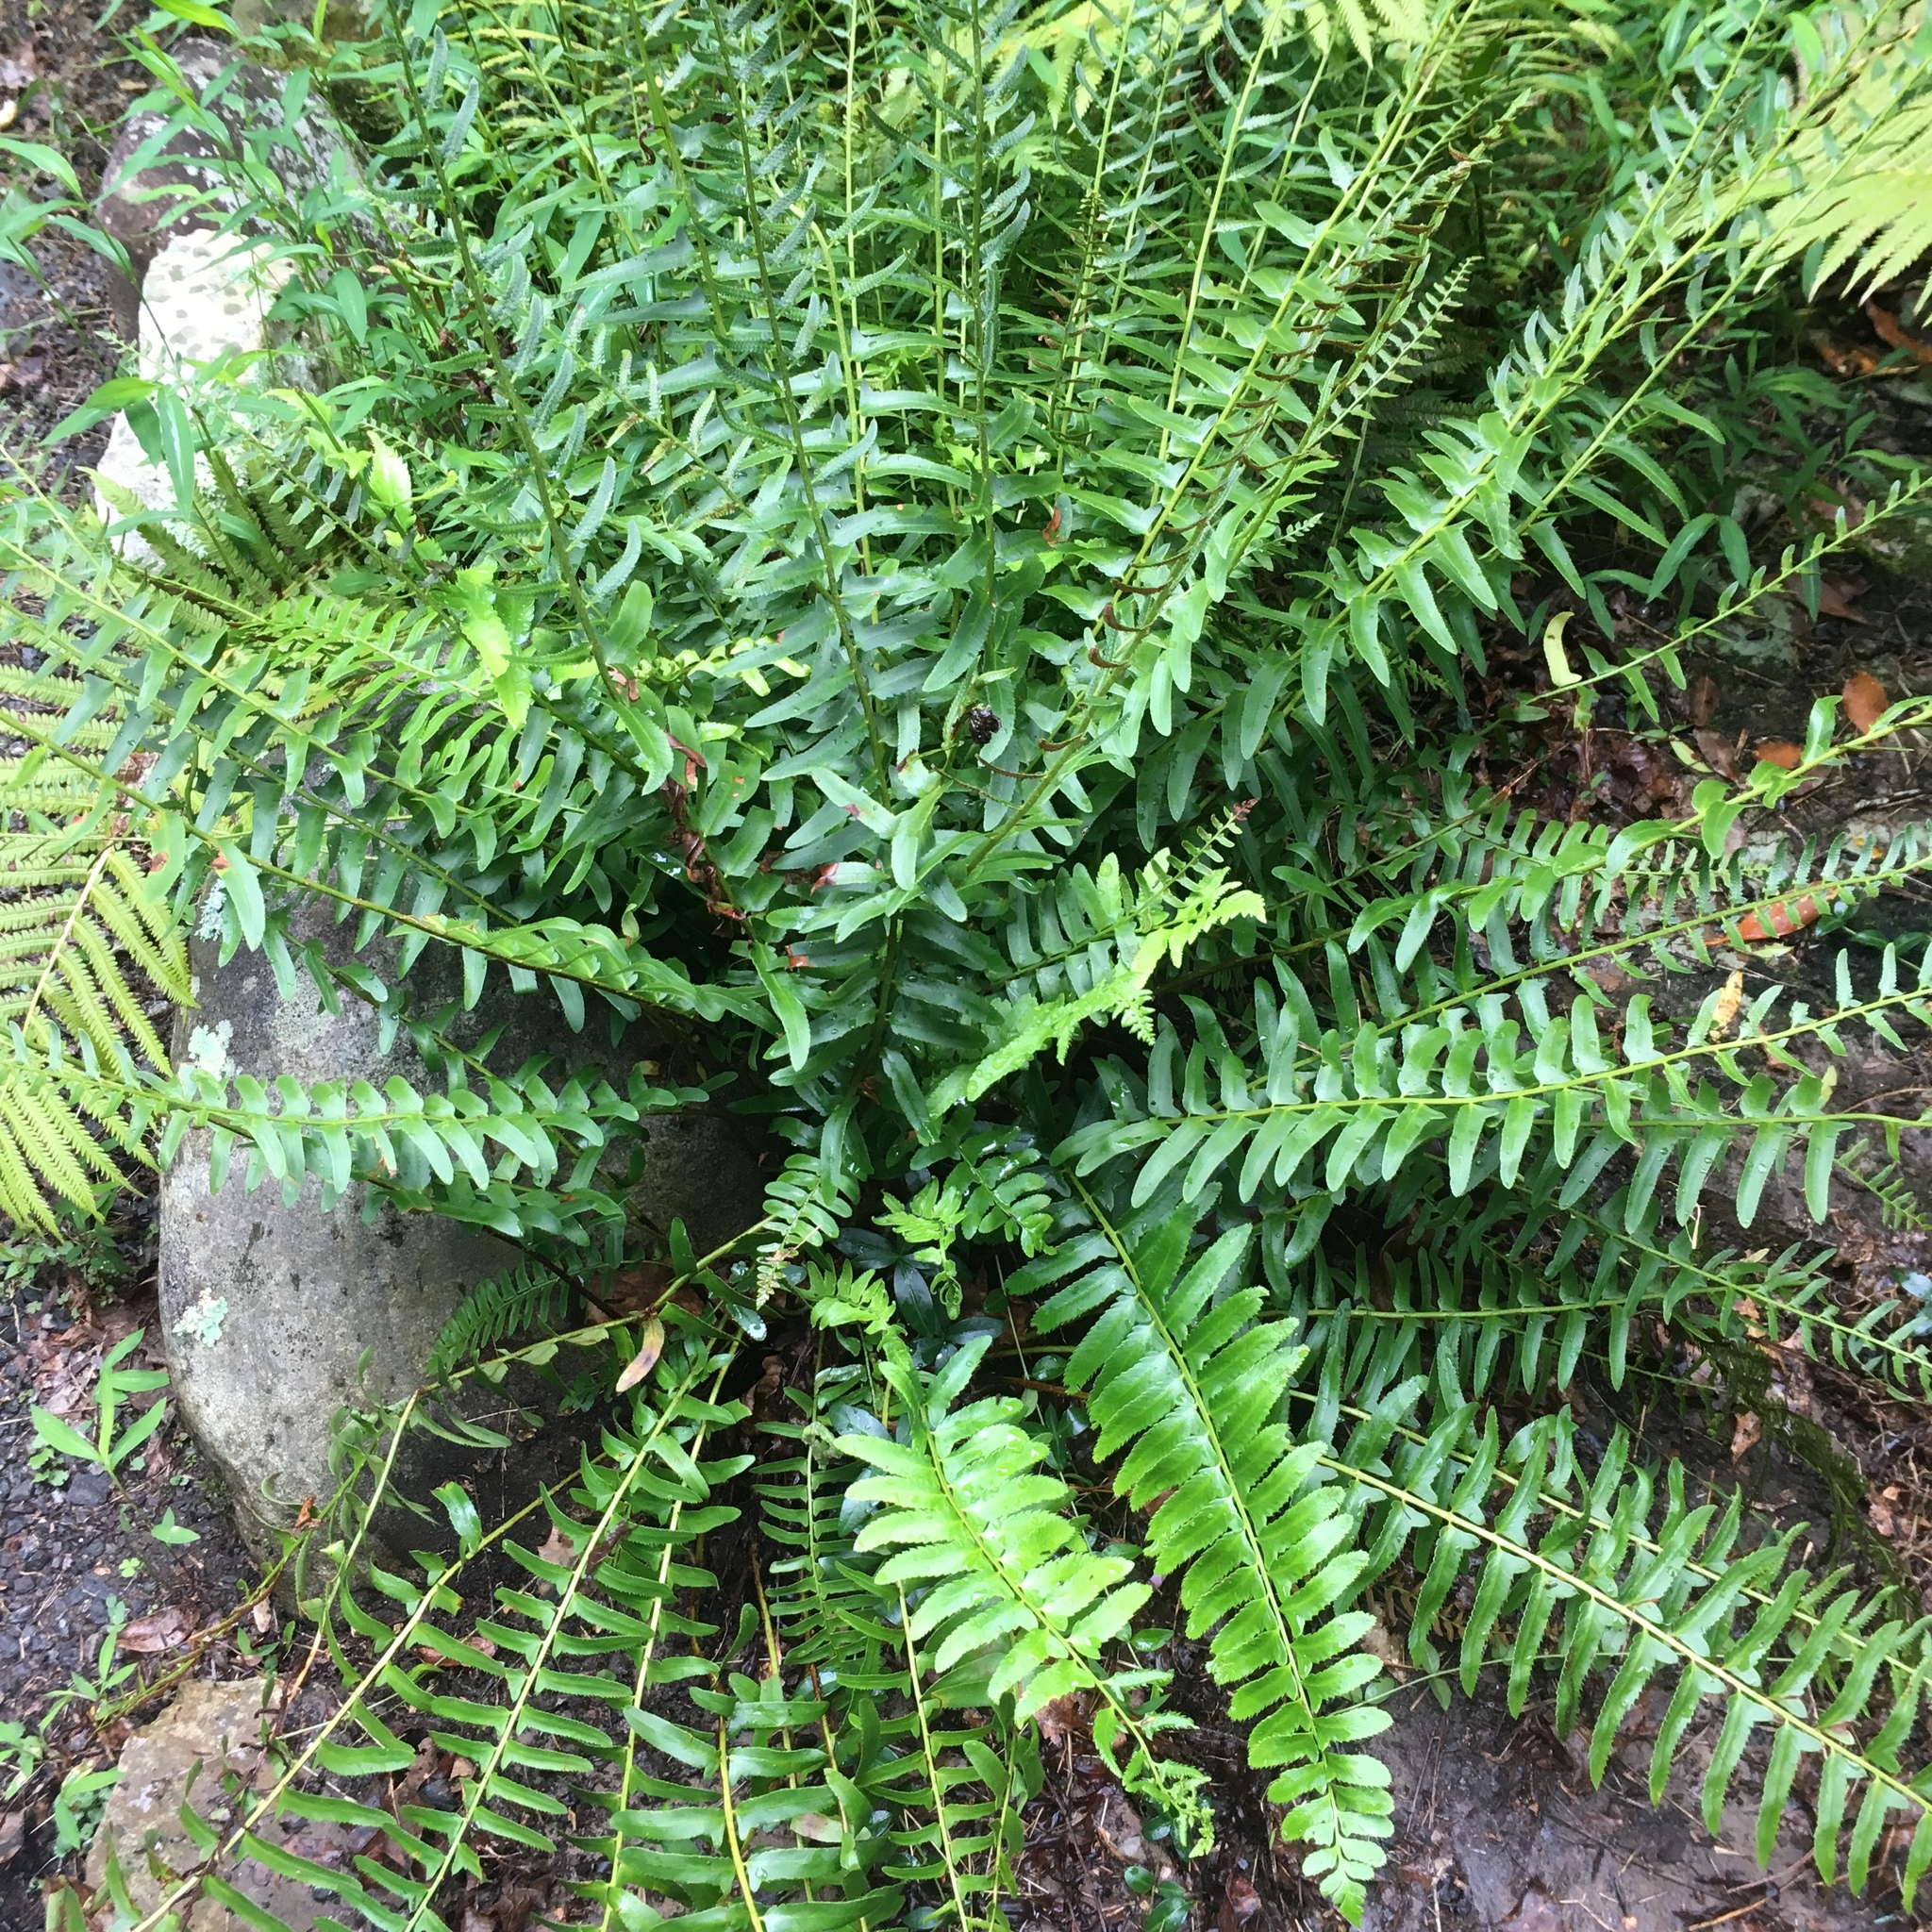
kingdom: Plantae
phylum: Tracheophyta
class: Polypodiopsida
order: Polypodiales
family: Dryopteridaceae
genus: Polystichum
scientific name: Polystichum acrostichoides
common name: Christmas fern
